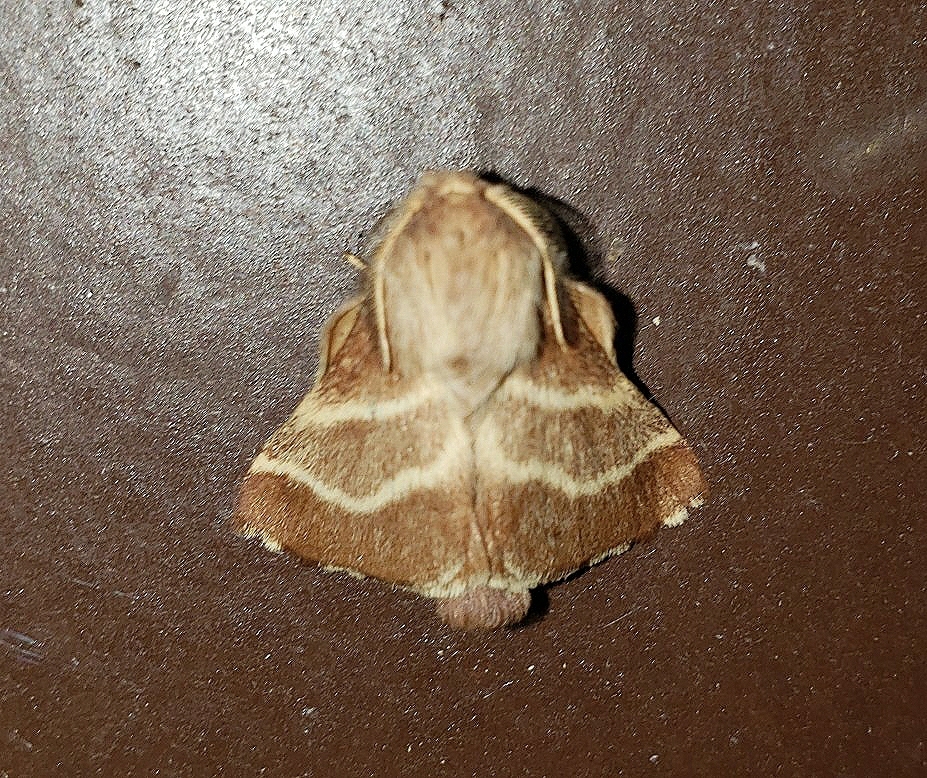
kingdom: Animalia
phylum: Arthropoda
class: Insecta
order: Lepidoptera
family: Lasiocampidae
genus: Malacosoma
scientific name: Malacosoma americana
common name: Eastern tent caterpillar moth
